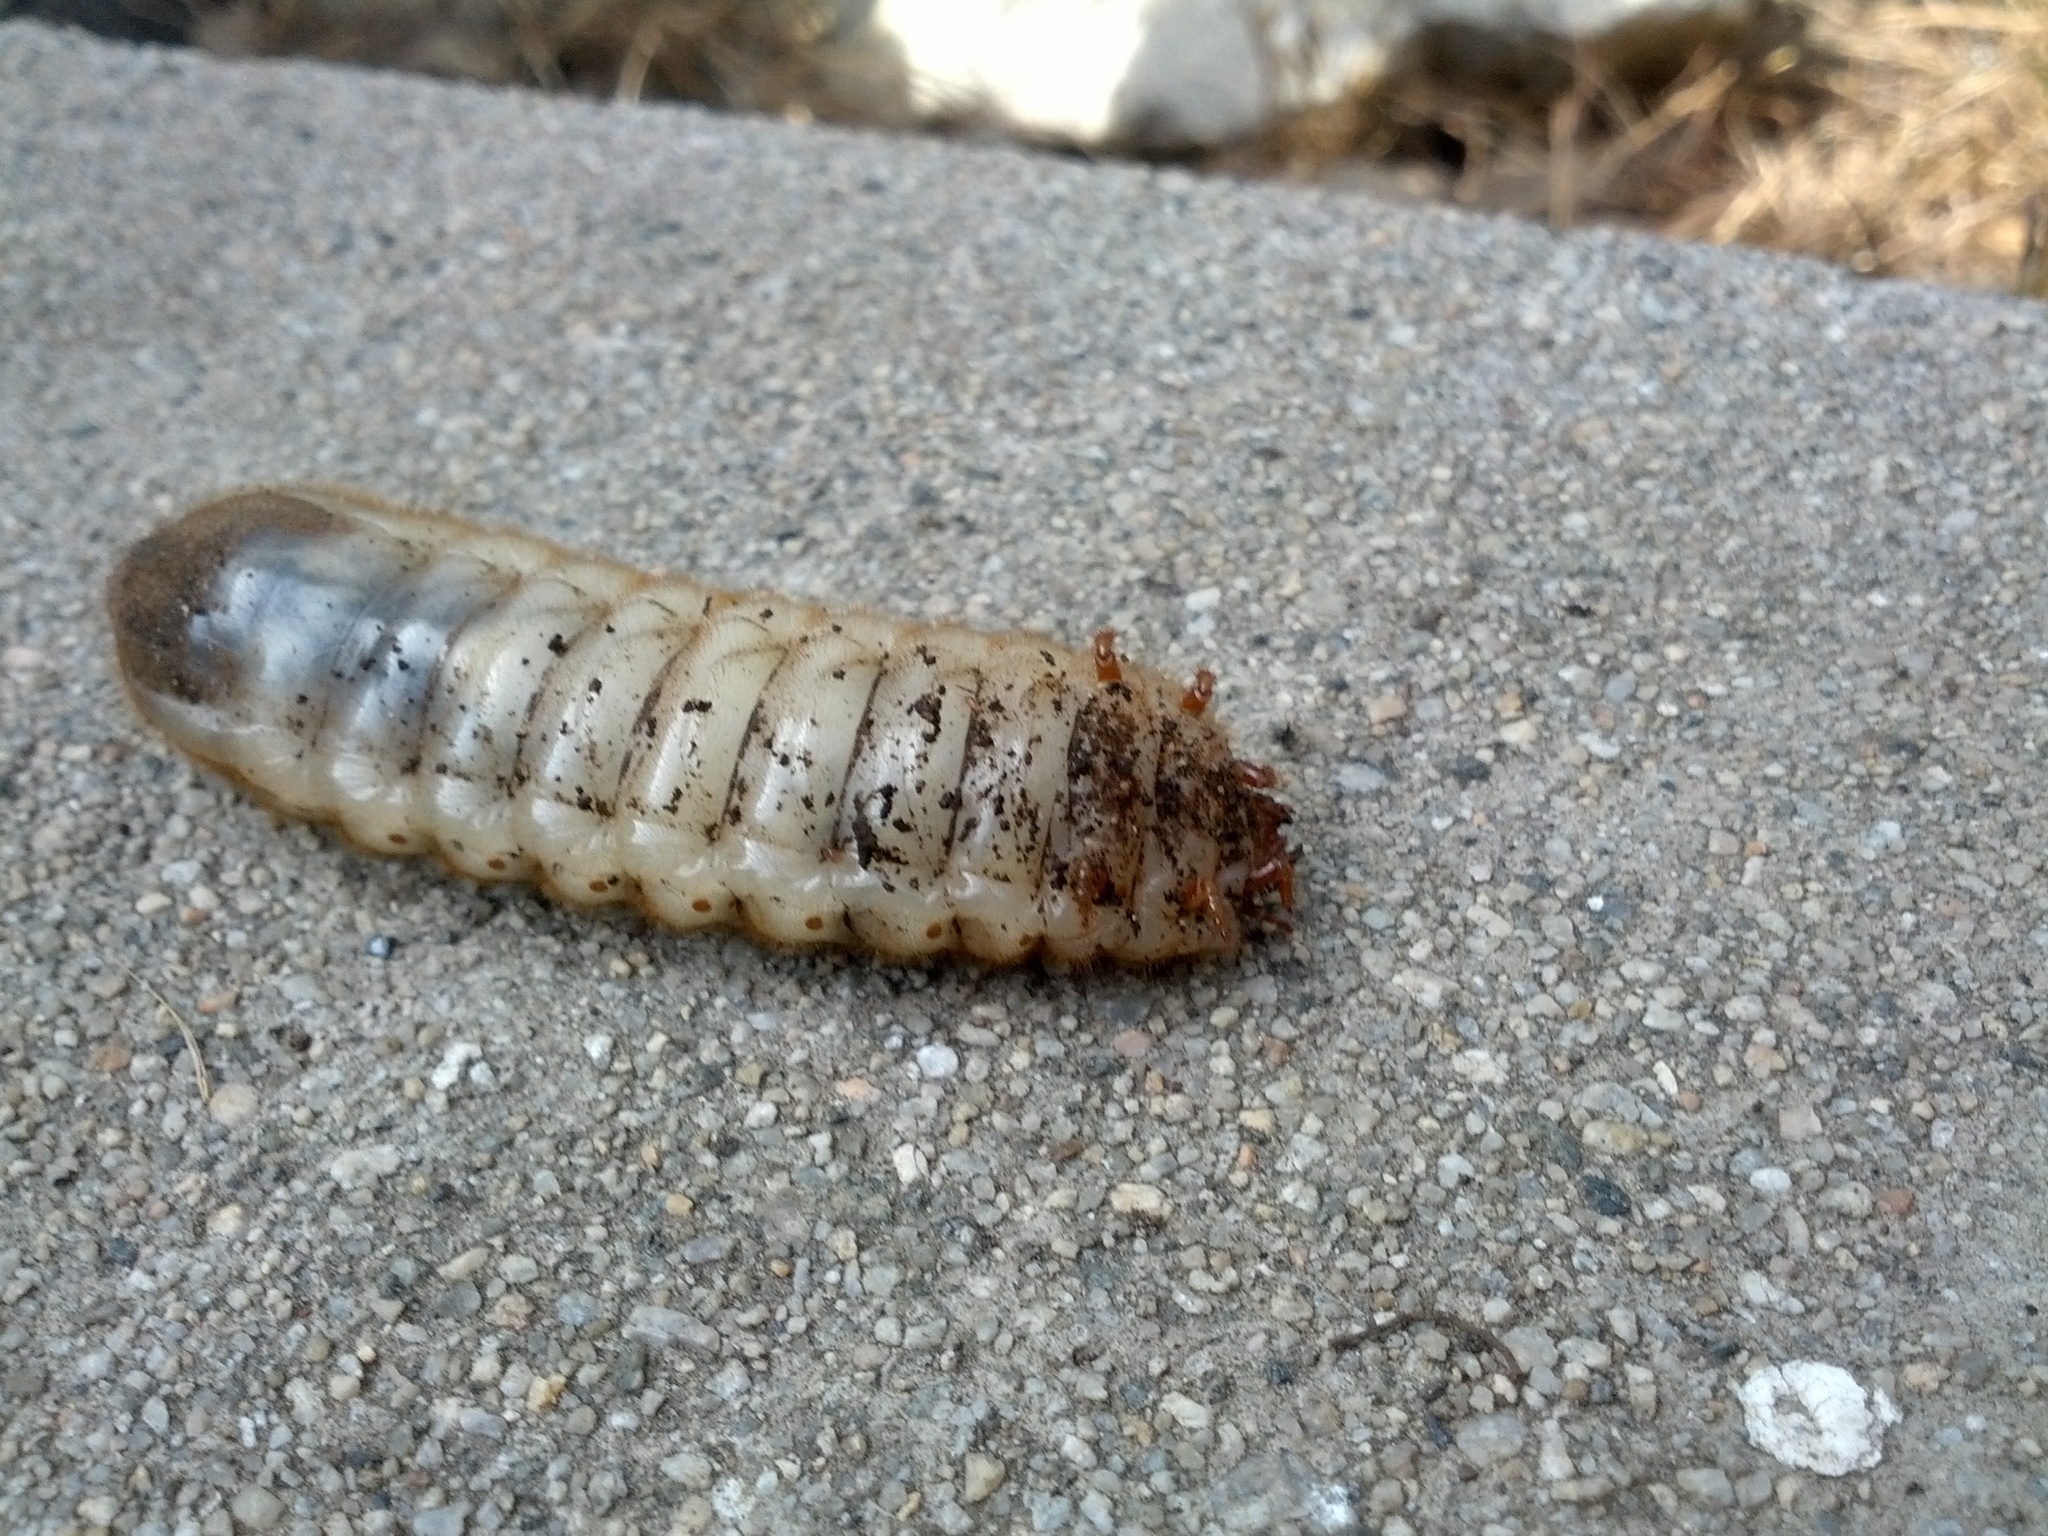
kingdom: Animalia
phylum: Arthropoda
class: Insecta
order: Coleoptera
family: Scarabaeidae
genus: Cotinis
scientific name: Cotinis mutabilis
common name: Figeater beetle
